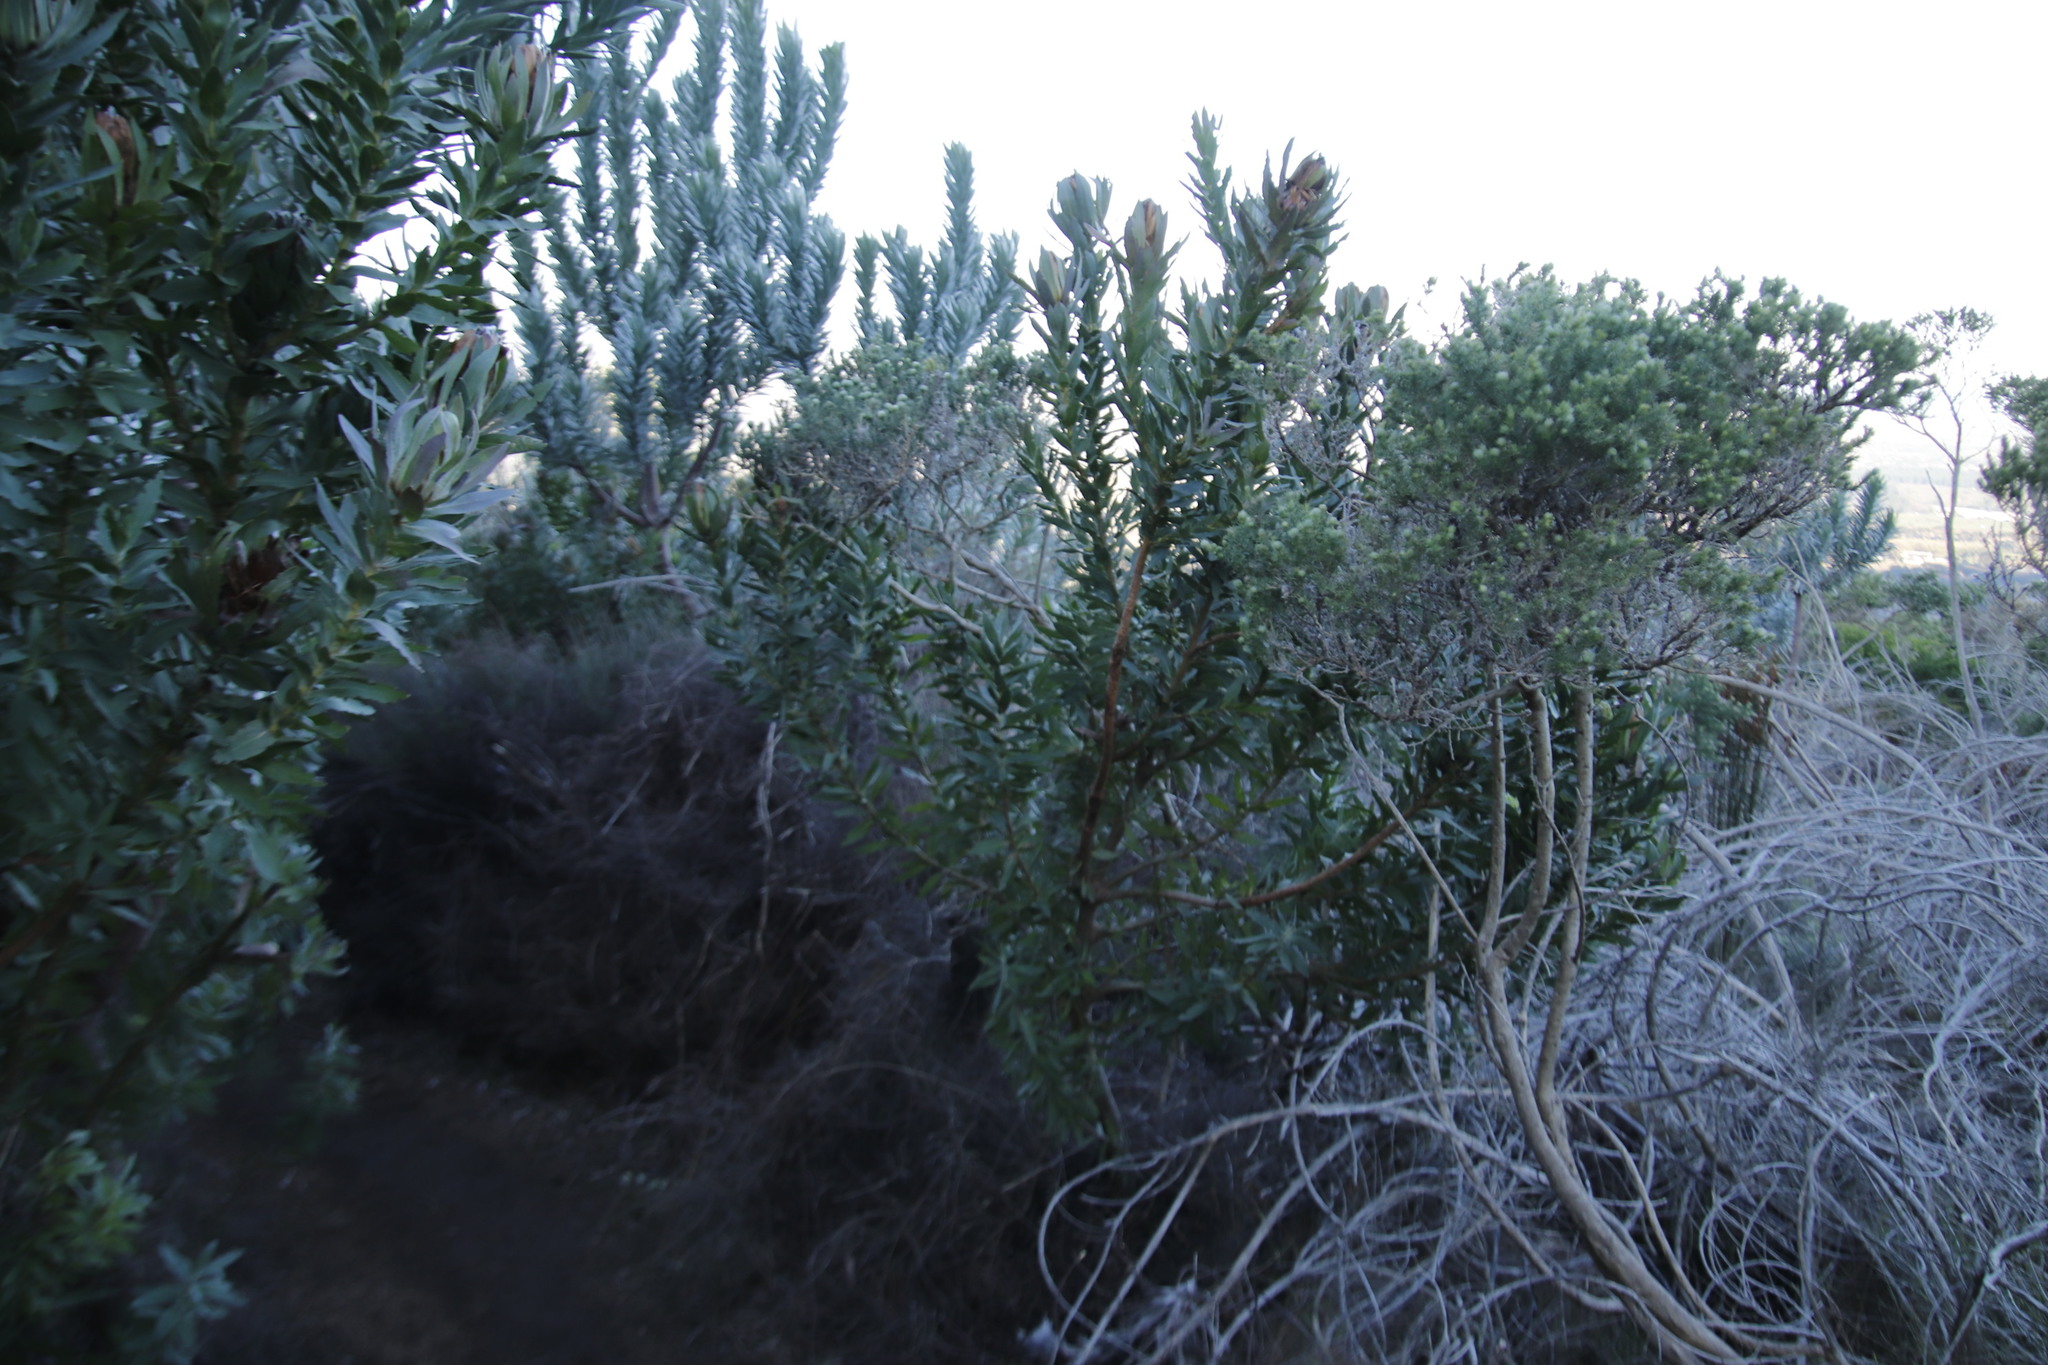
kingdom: Plantae
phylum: Tracheophyta
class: Magnoliopsida
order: Proteales
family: Proteaceae
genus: Protea
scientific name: Protea coronata
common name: Green sugarbush
